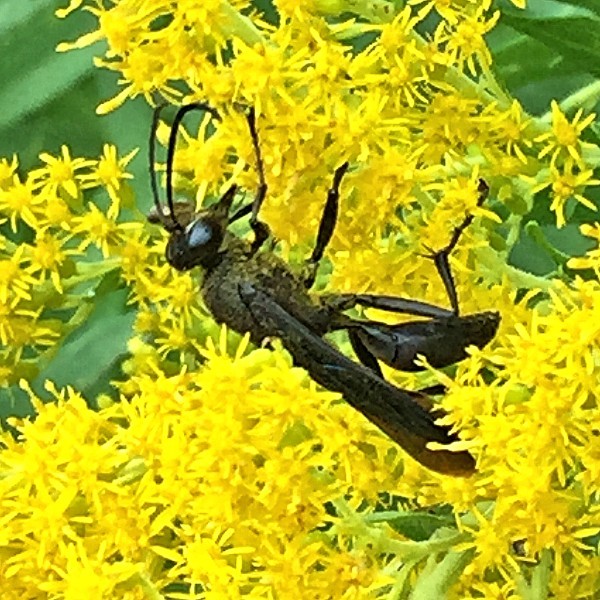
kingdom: Animalia
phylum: Arthropoda
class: Insecta
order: Hymenoptera
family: Sphecidae
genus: Sphex
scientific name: Sphex pensylvanicus
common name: Great black digger wasp
